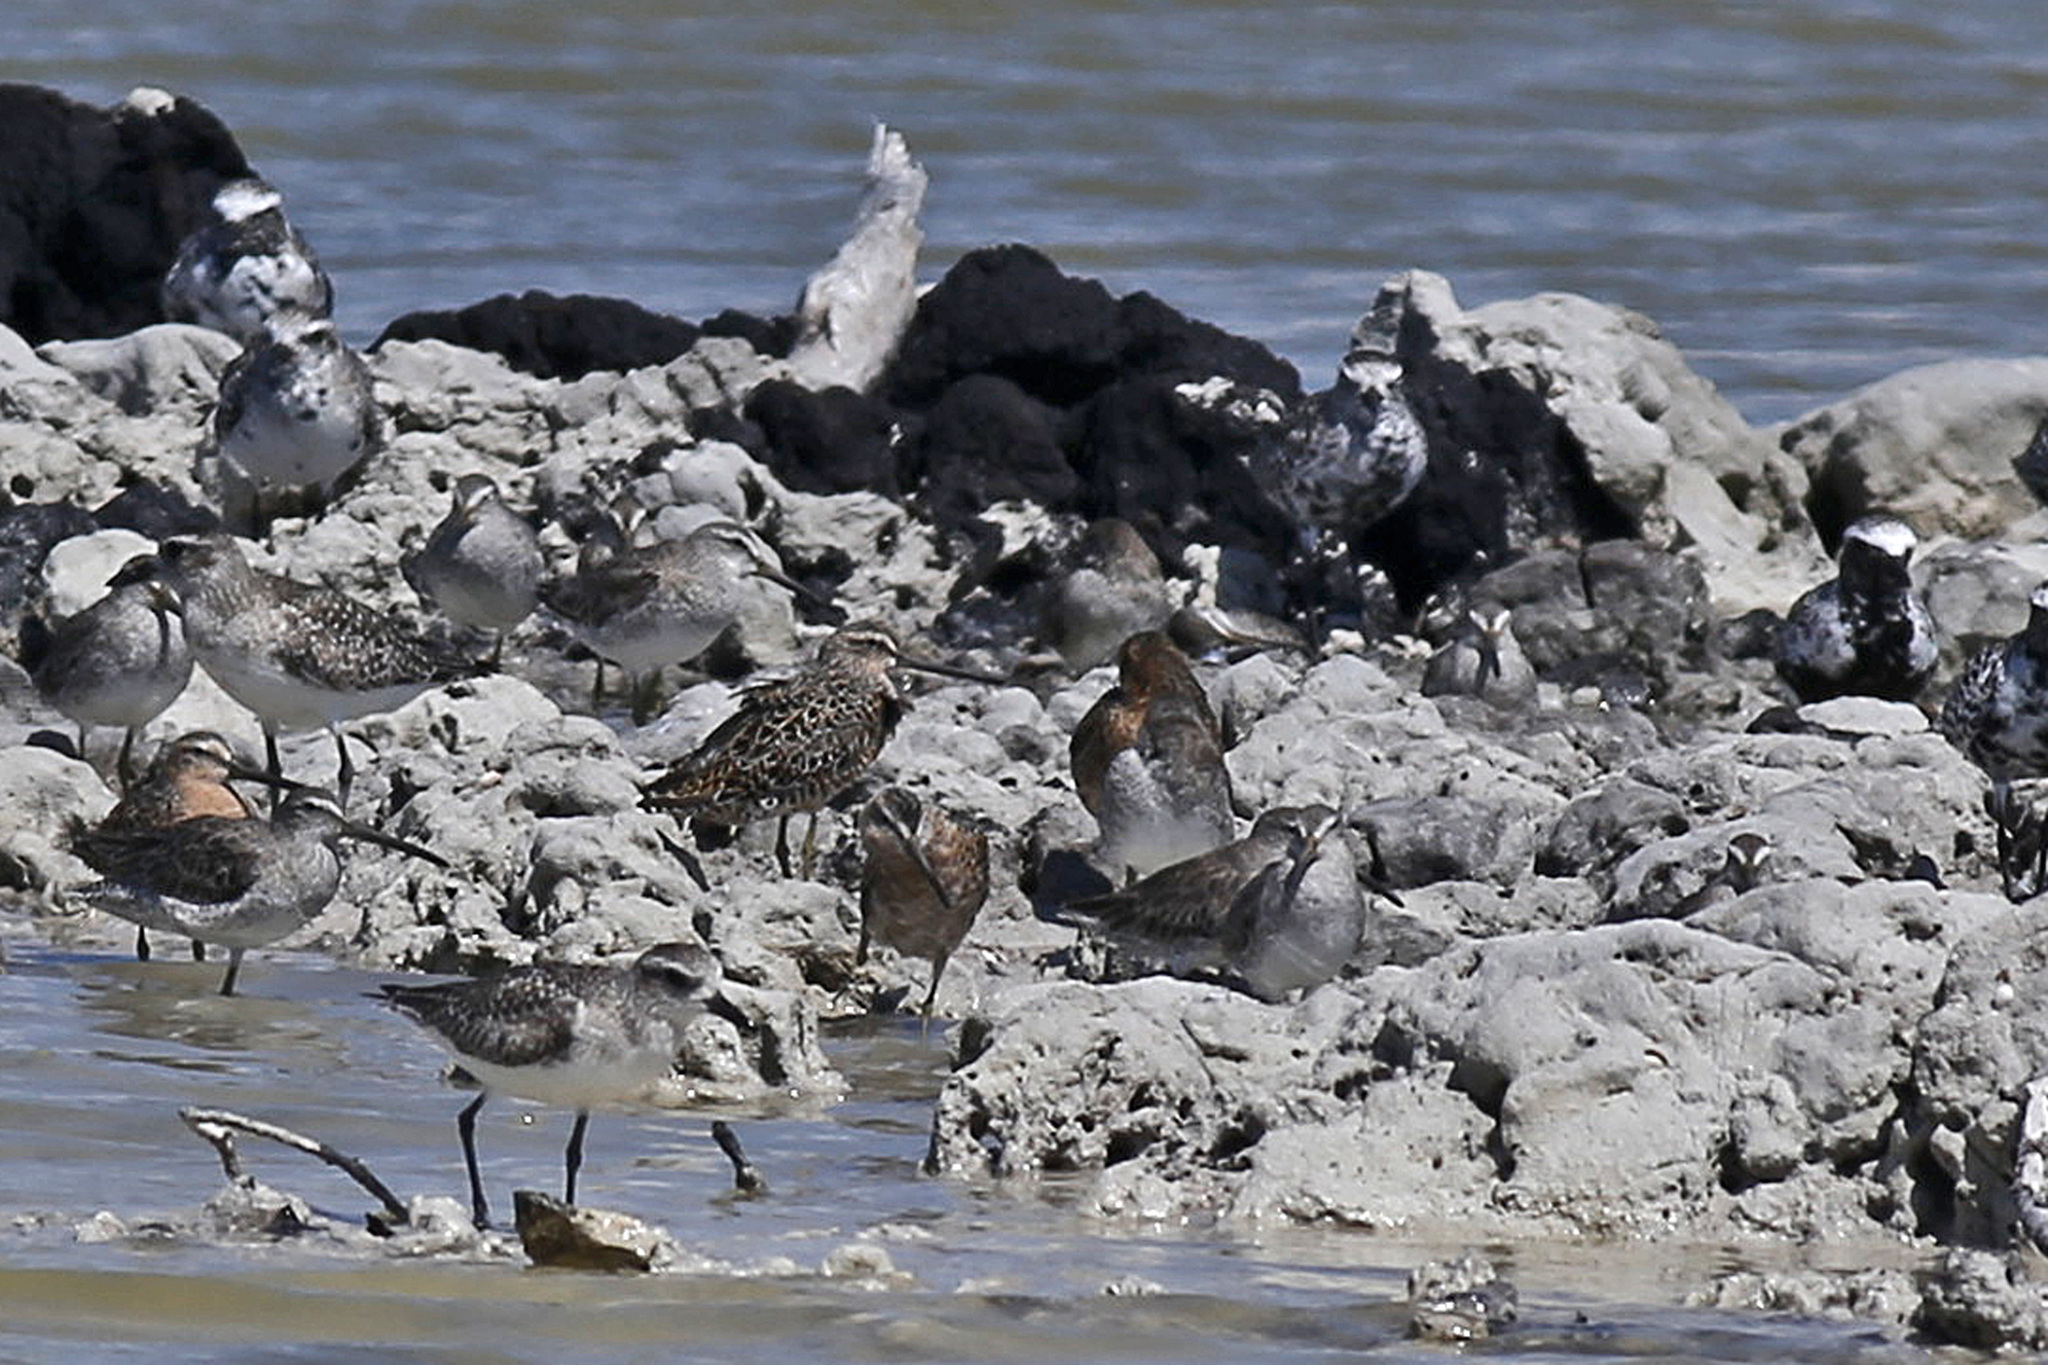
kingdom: Animalia
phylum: Chordata
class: Aves
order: Charadriiformes
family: Charadriidae
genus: Pluvialis
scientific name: Pluvialis squatarola
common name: Grey plover
